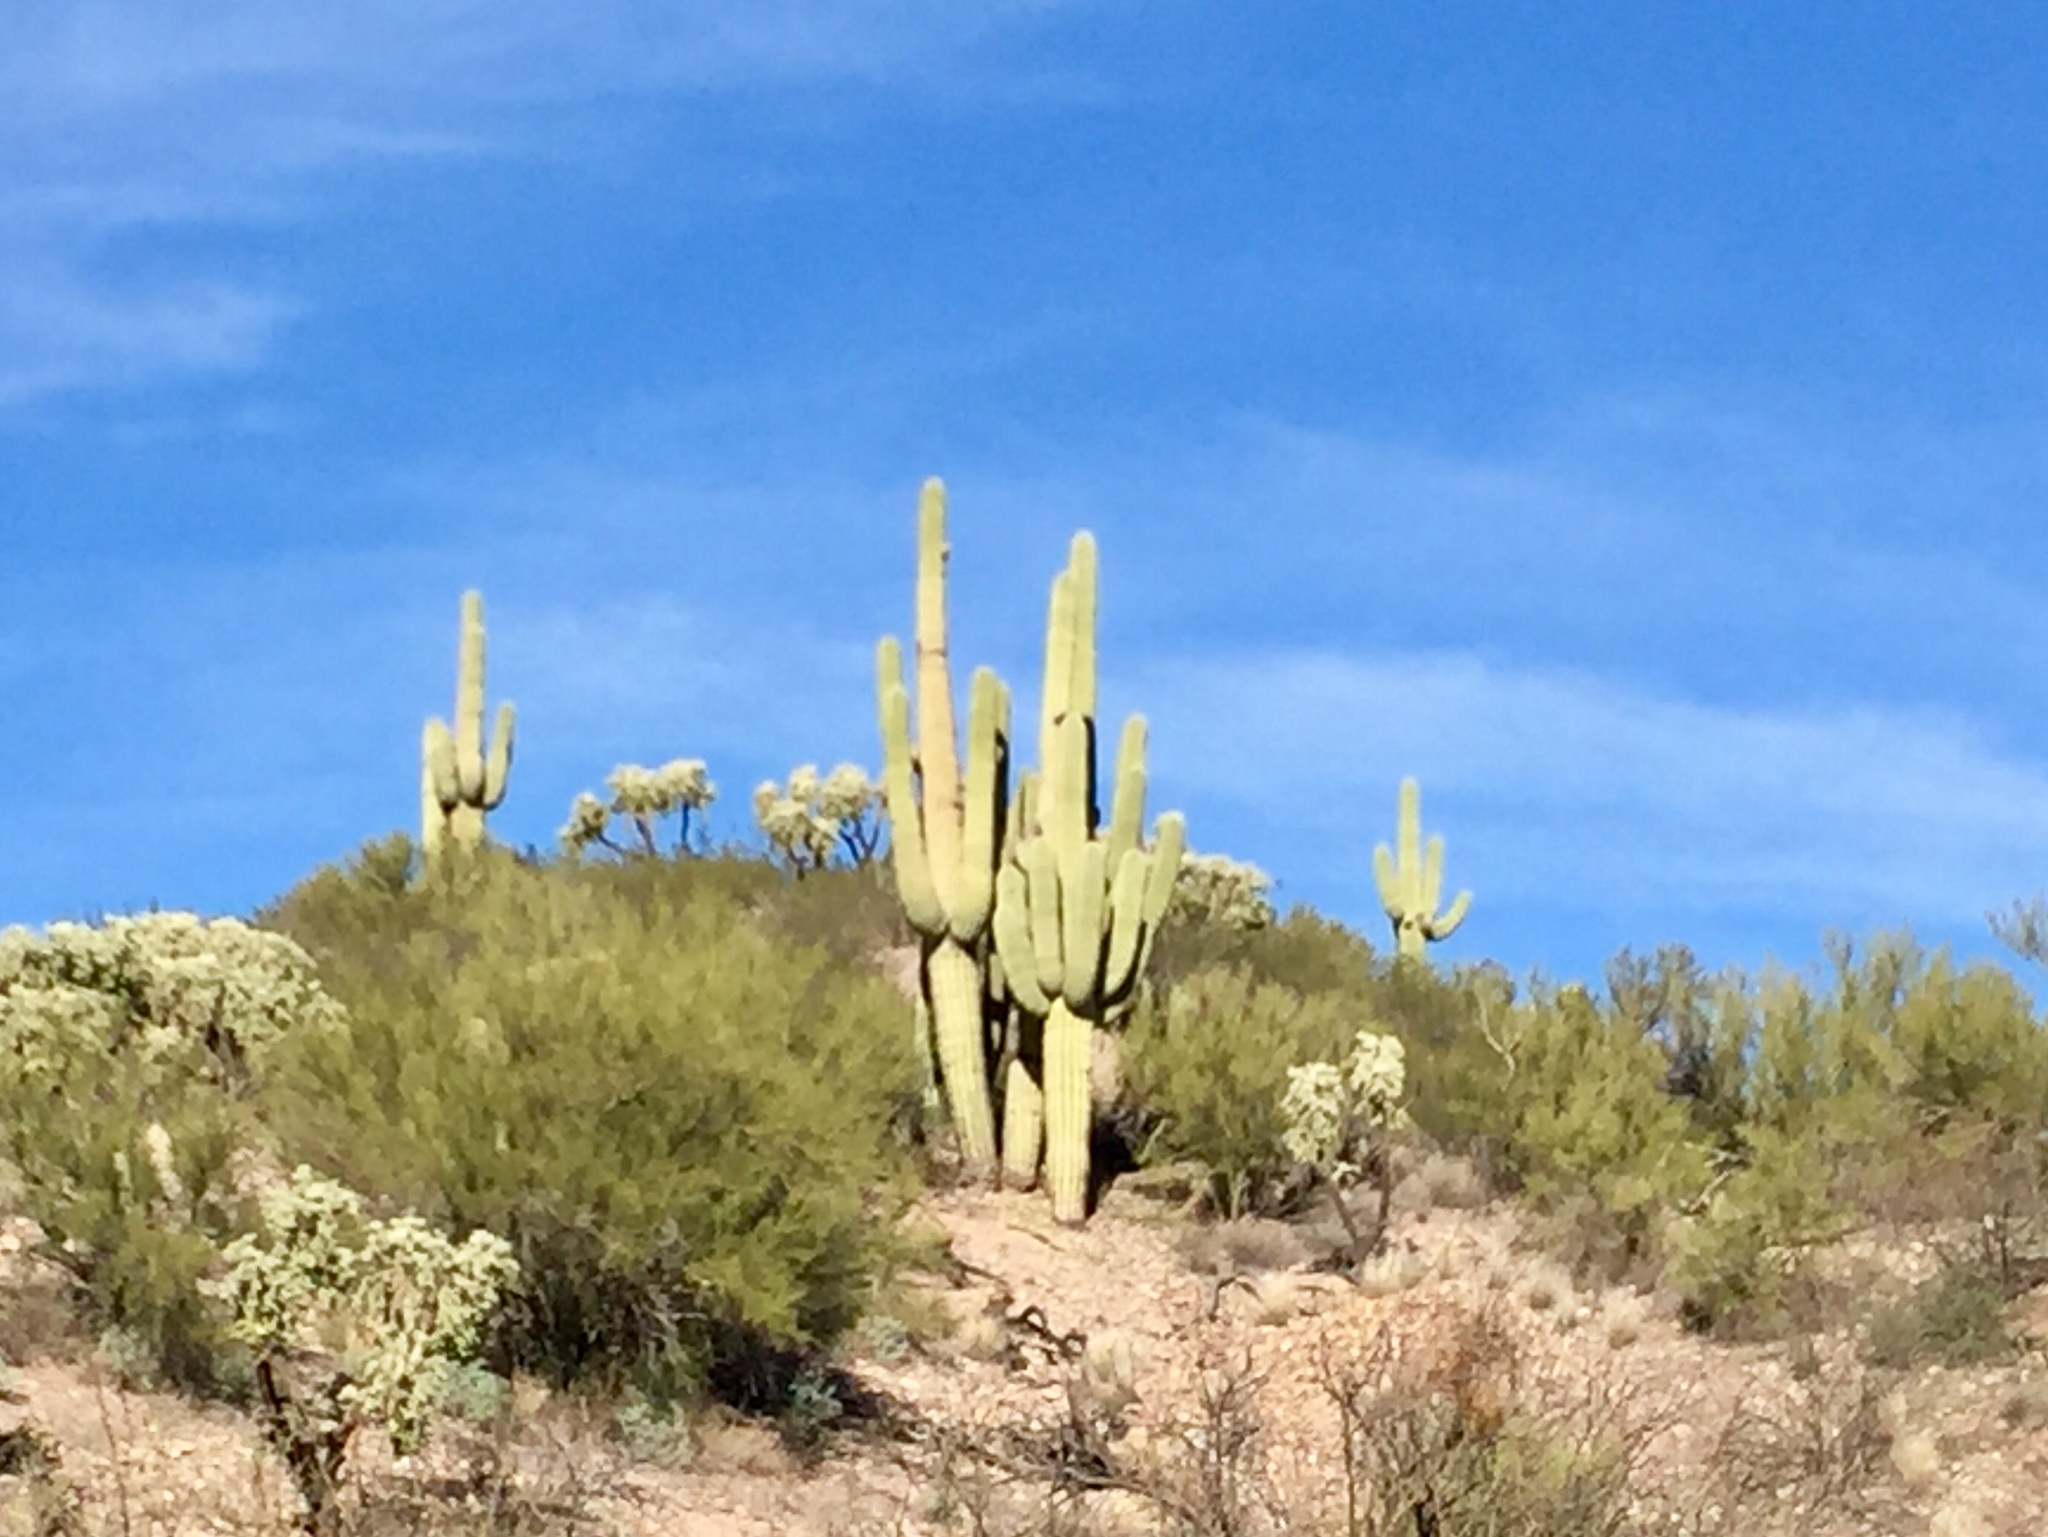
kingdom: Plantae
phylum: Tracheophyta
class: Magnoliopsida
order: Caryophyllales
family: Cactaceae
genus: Carnegiea
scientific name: Carnegiea gigantea
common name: Saguaro
